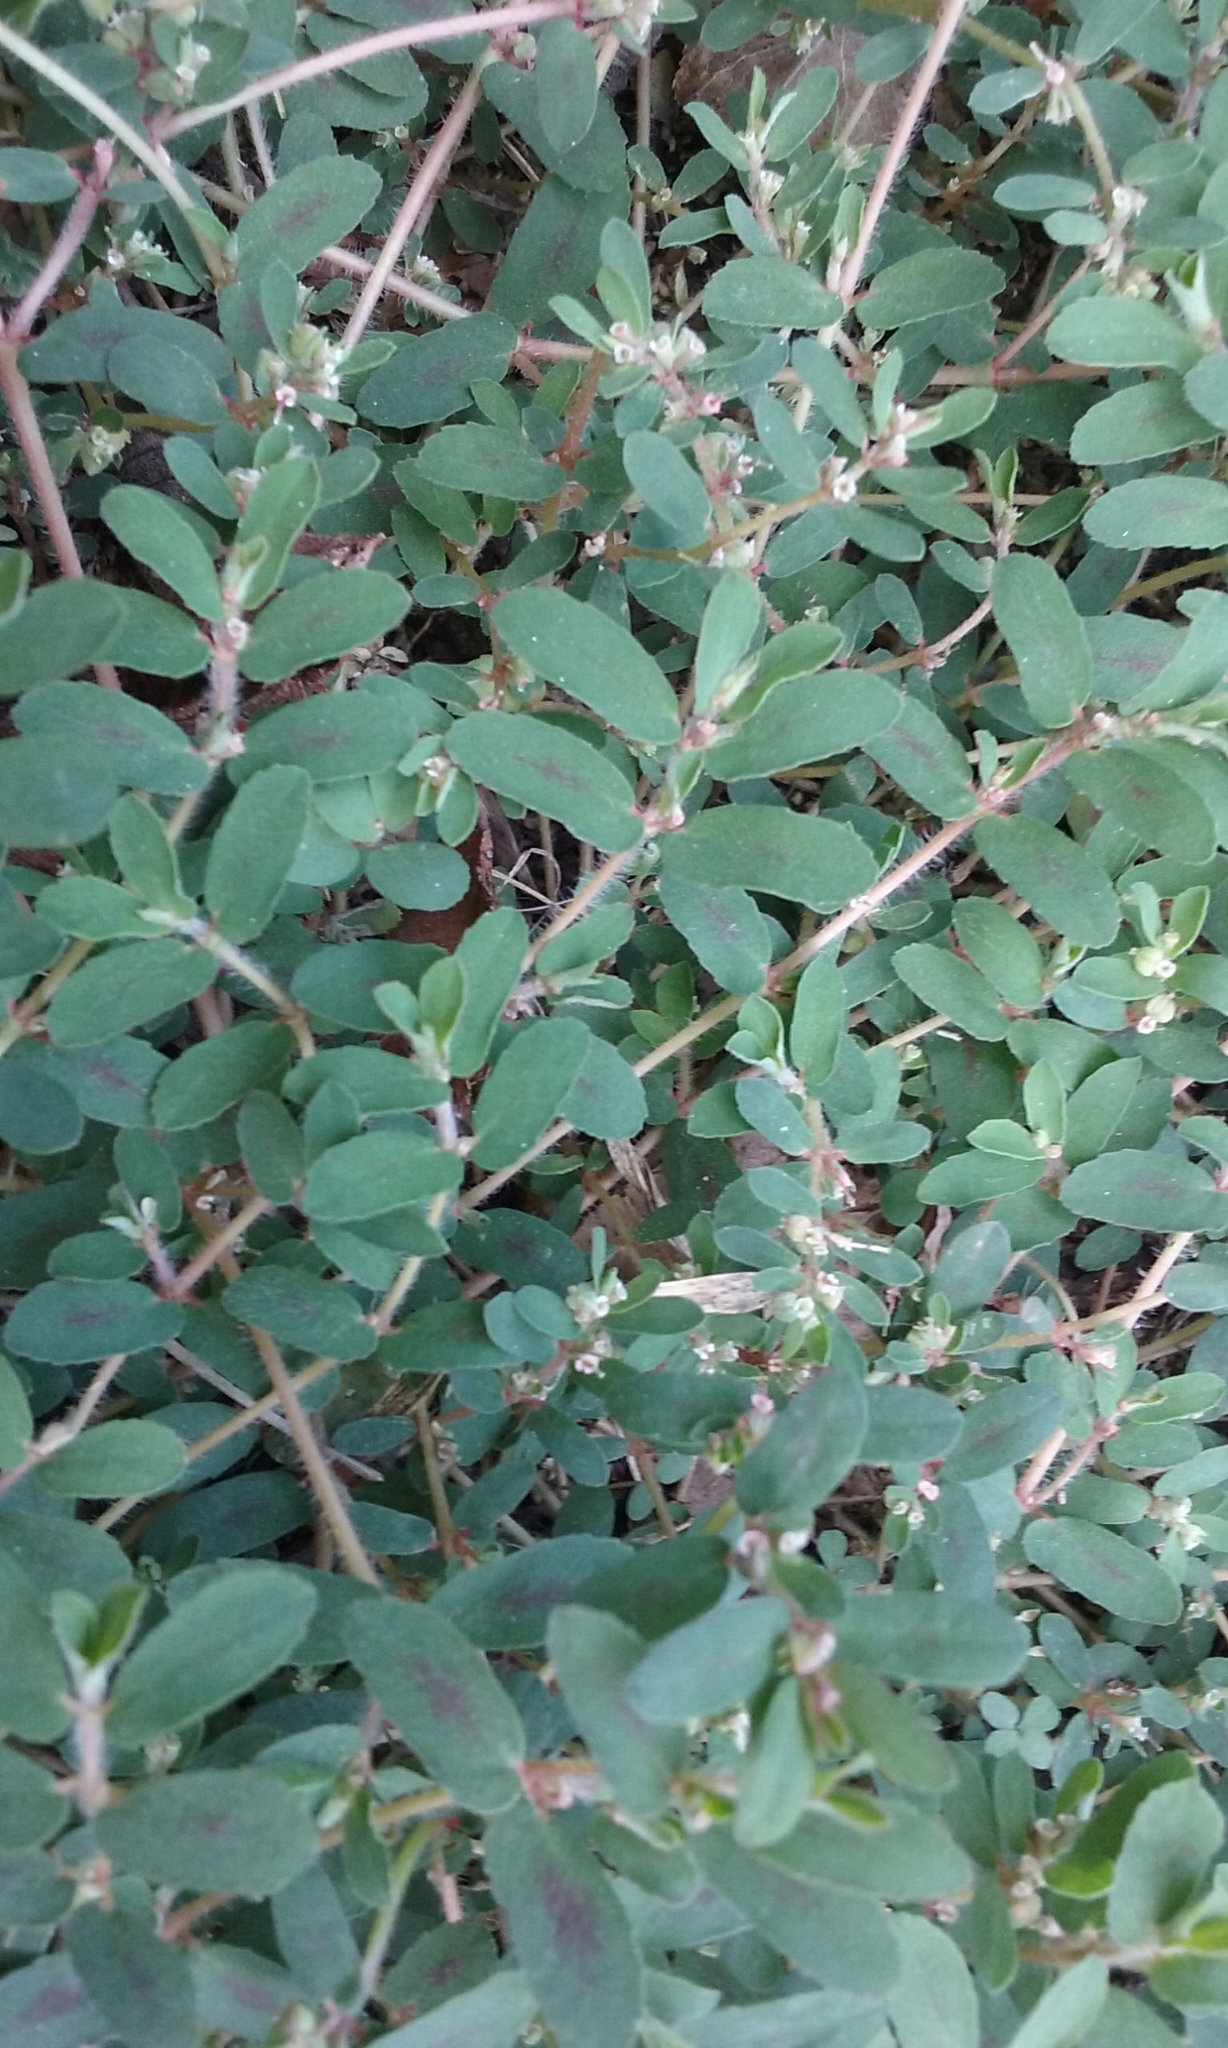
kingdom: Plantae
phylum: Tracheophyta
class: Magnoliopsida
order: Malpighiales
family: Euphorbiaceae
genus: Euphorbia
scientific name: Euphorbia maculata
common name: Spotted spurge
